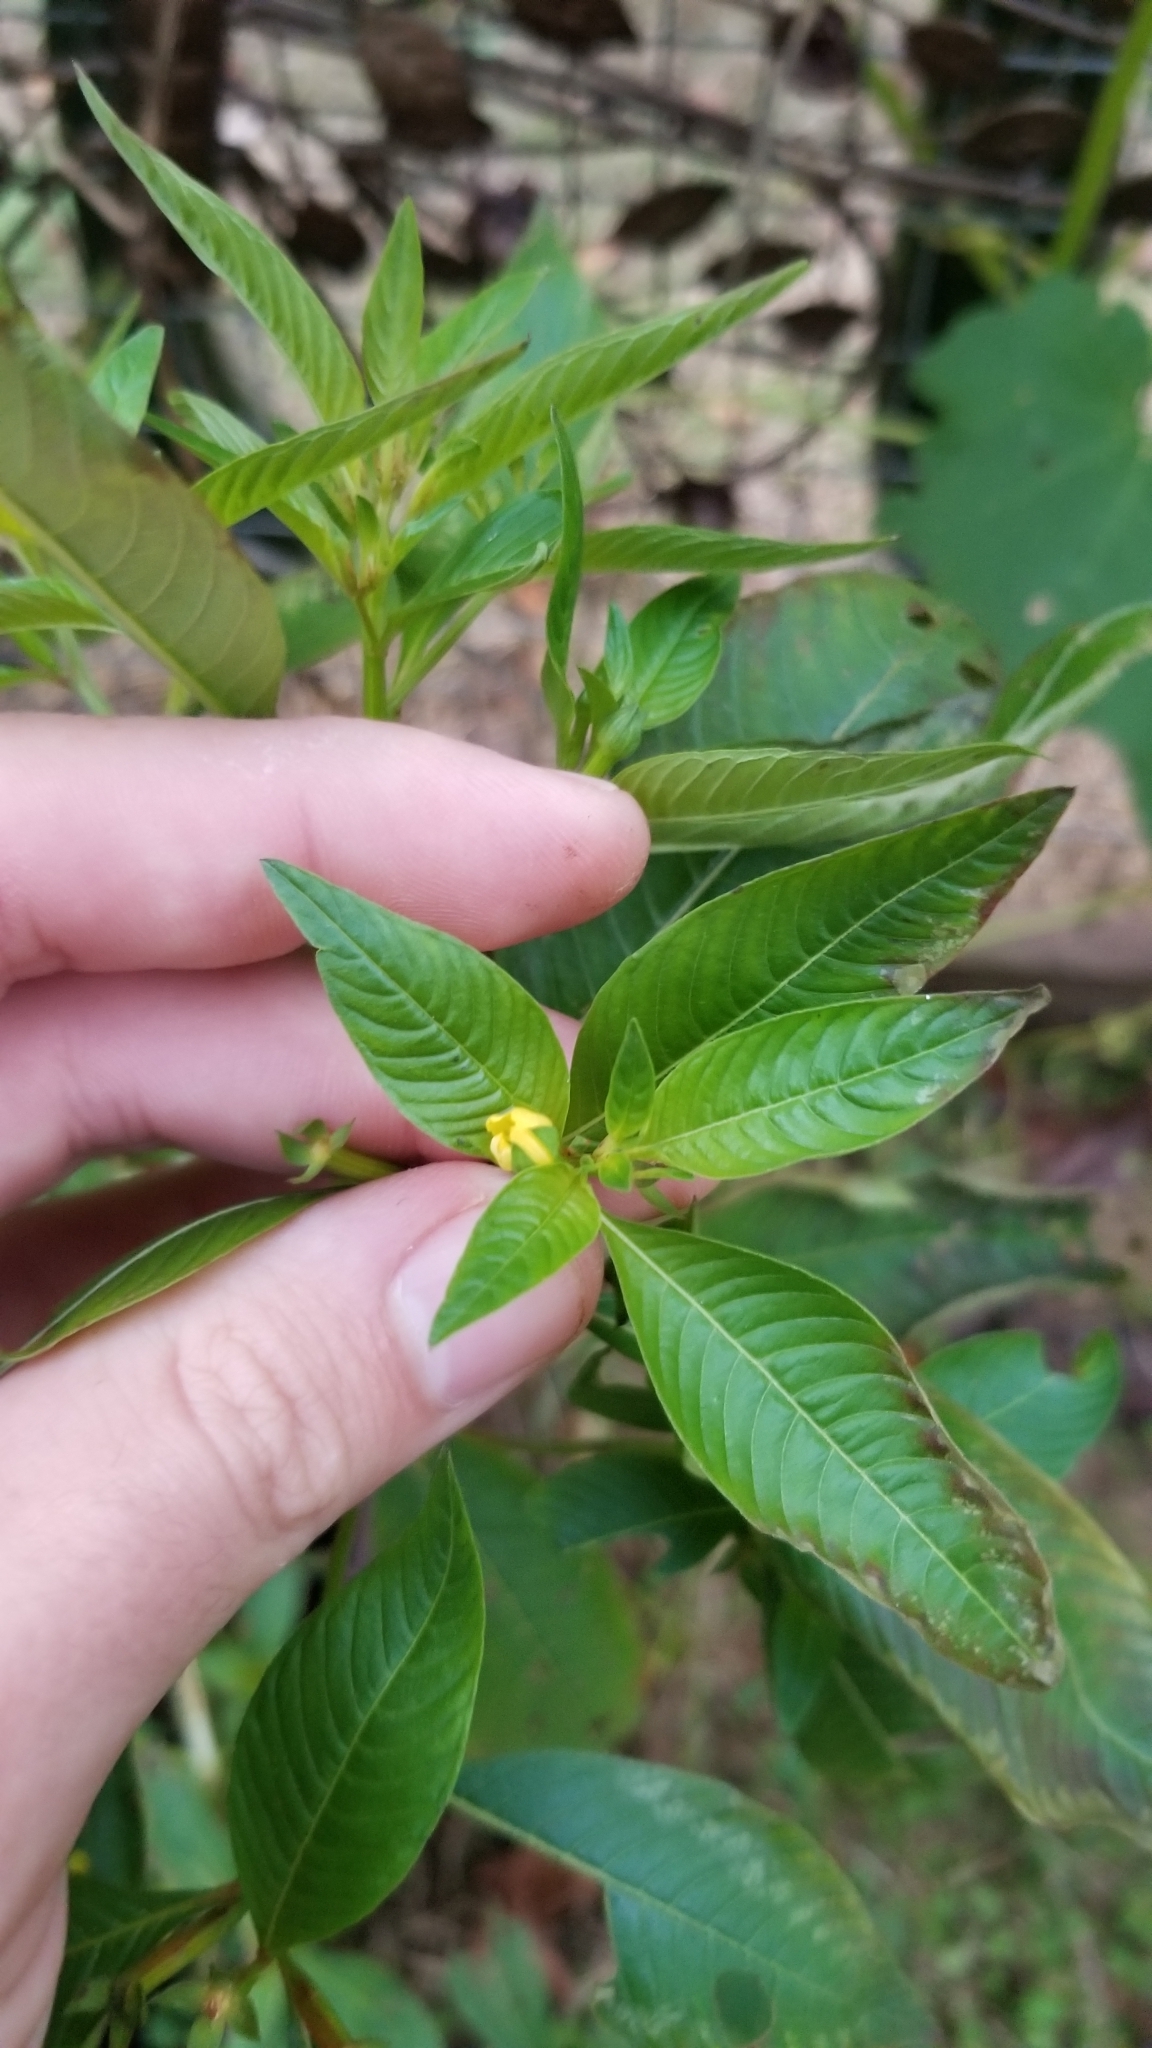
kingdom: Plantae
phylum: Tracheophyta
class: Magnoliopsida
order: Myrtales
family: Onagraceae
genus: Ludwigia
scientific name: Ludwigia decurrens
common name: Winged water-primrose
